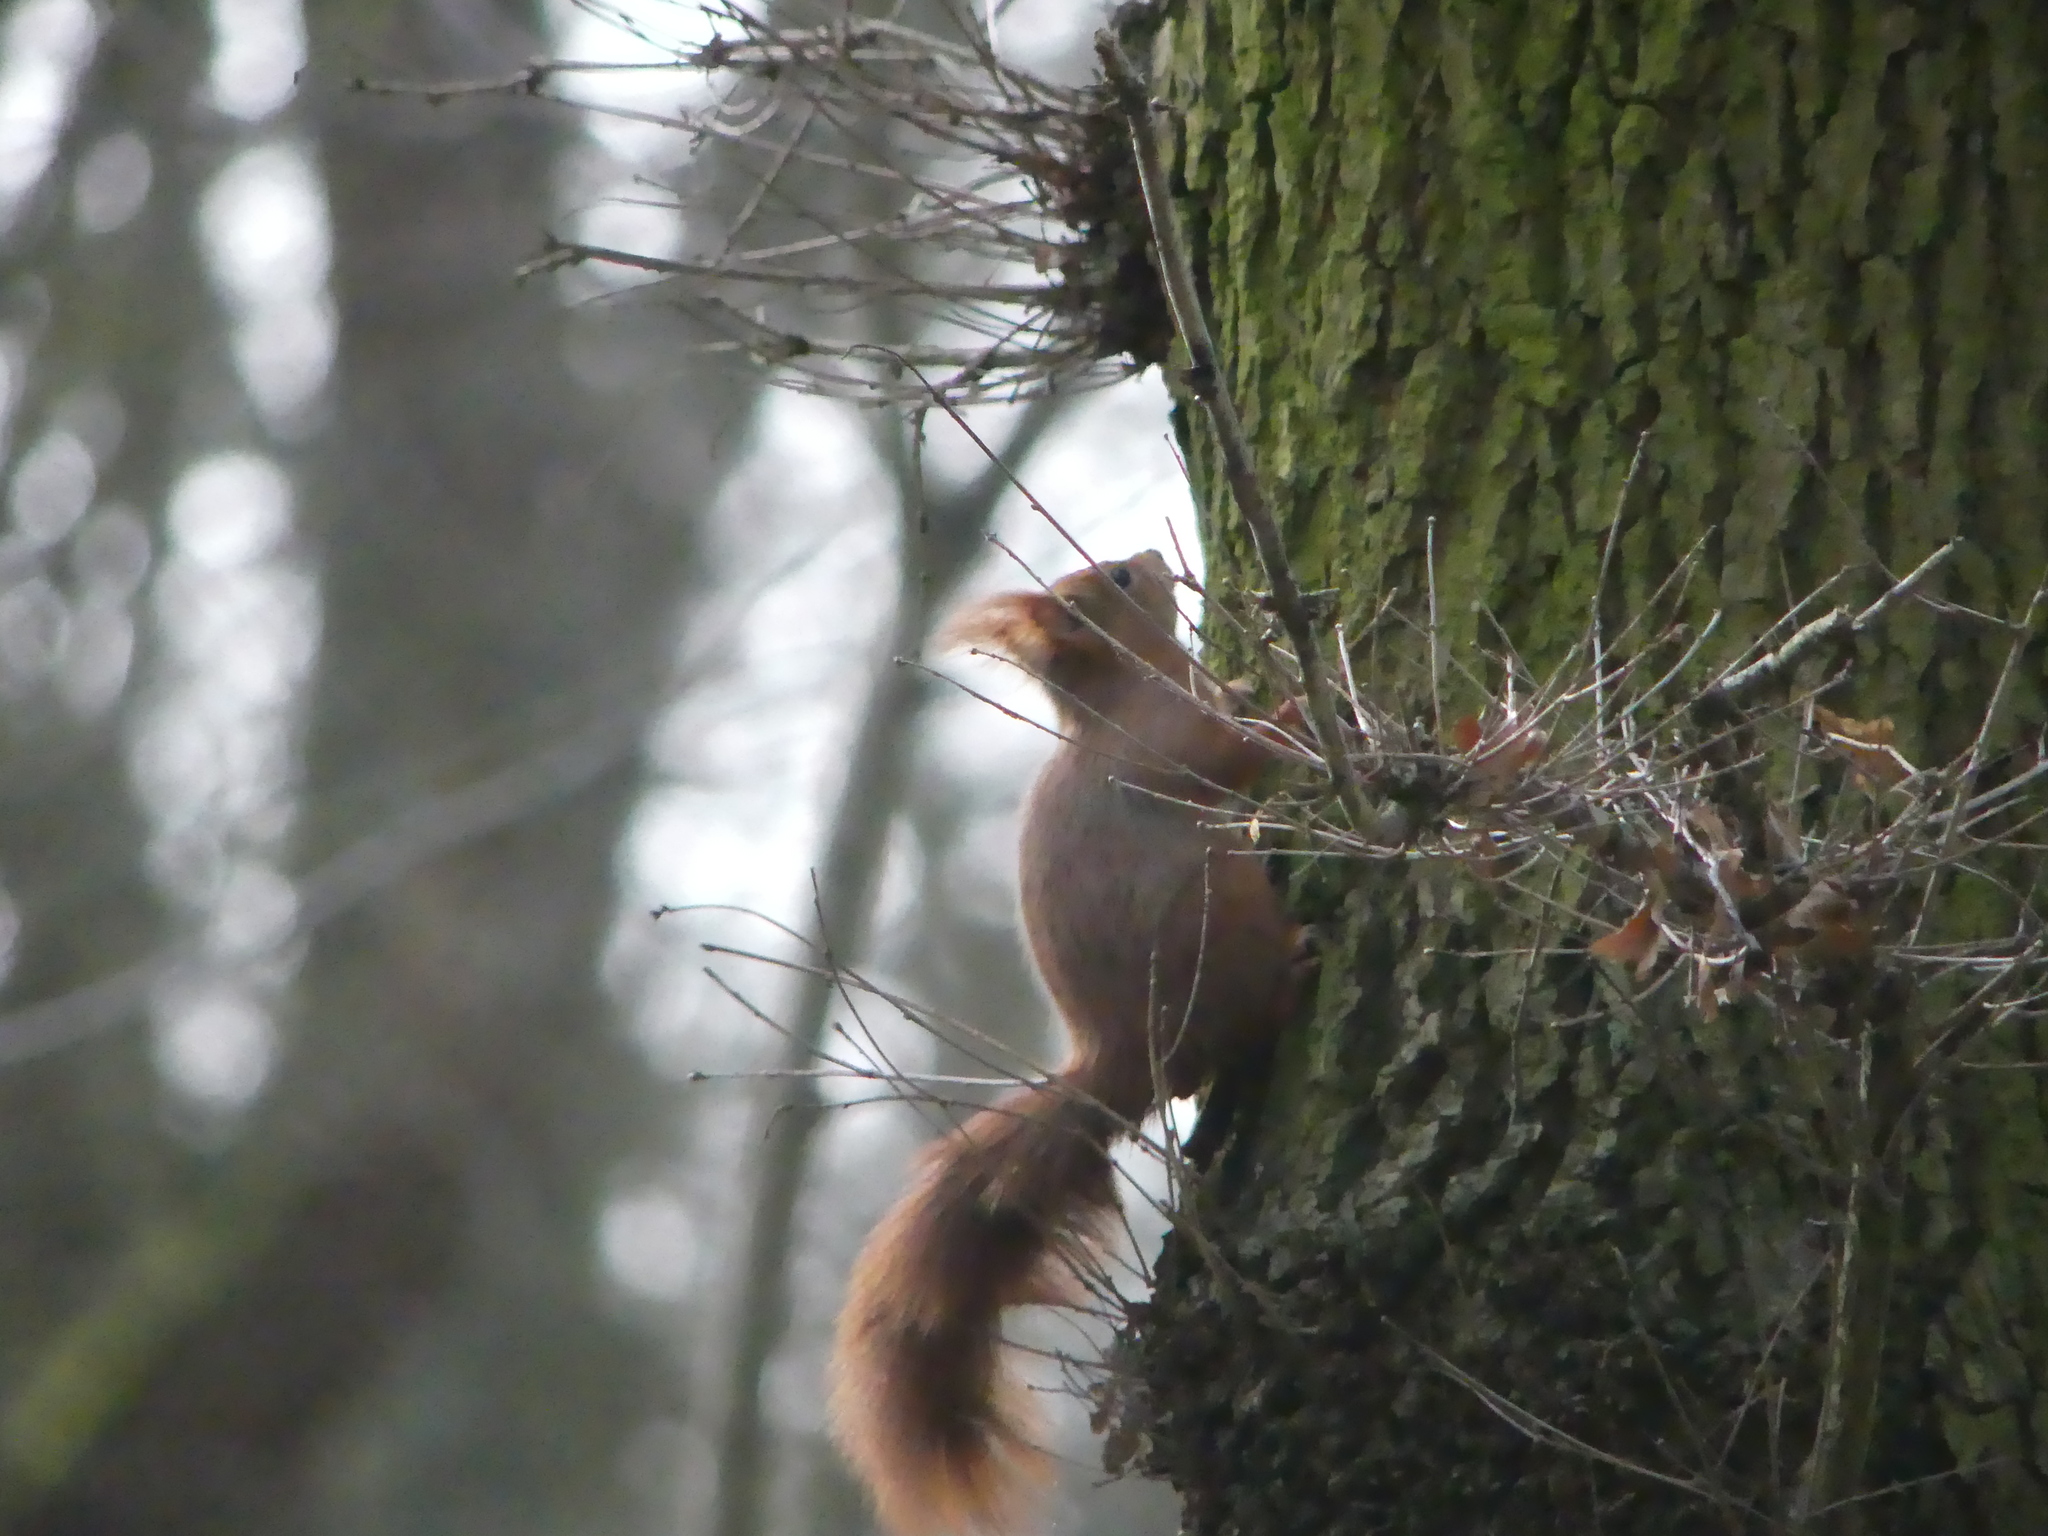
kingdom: Animalia
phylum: Chordata
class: Mammalia
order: Rodentia
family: Sciuridae
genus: Sciurus
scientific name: Sciurus vulgaris
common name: Eurasian red squirrel
